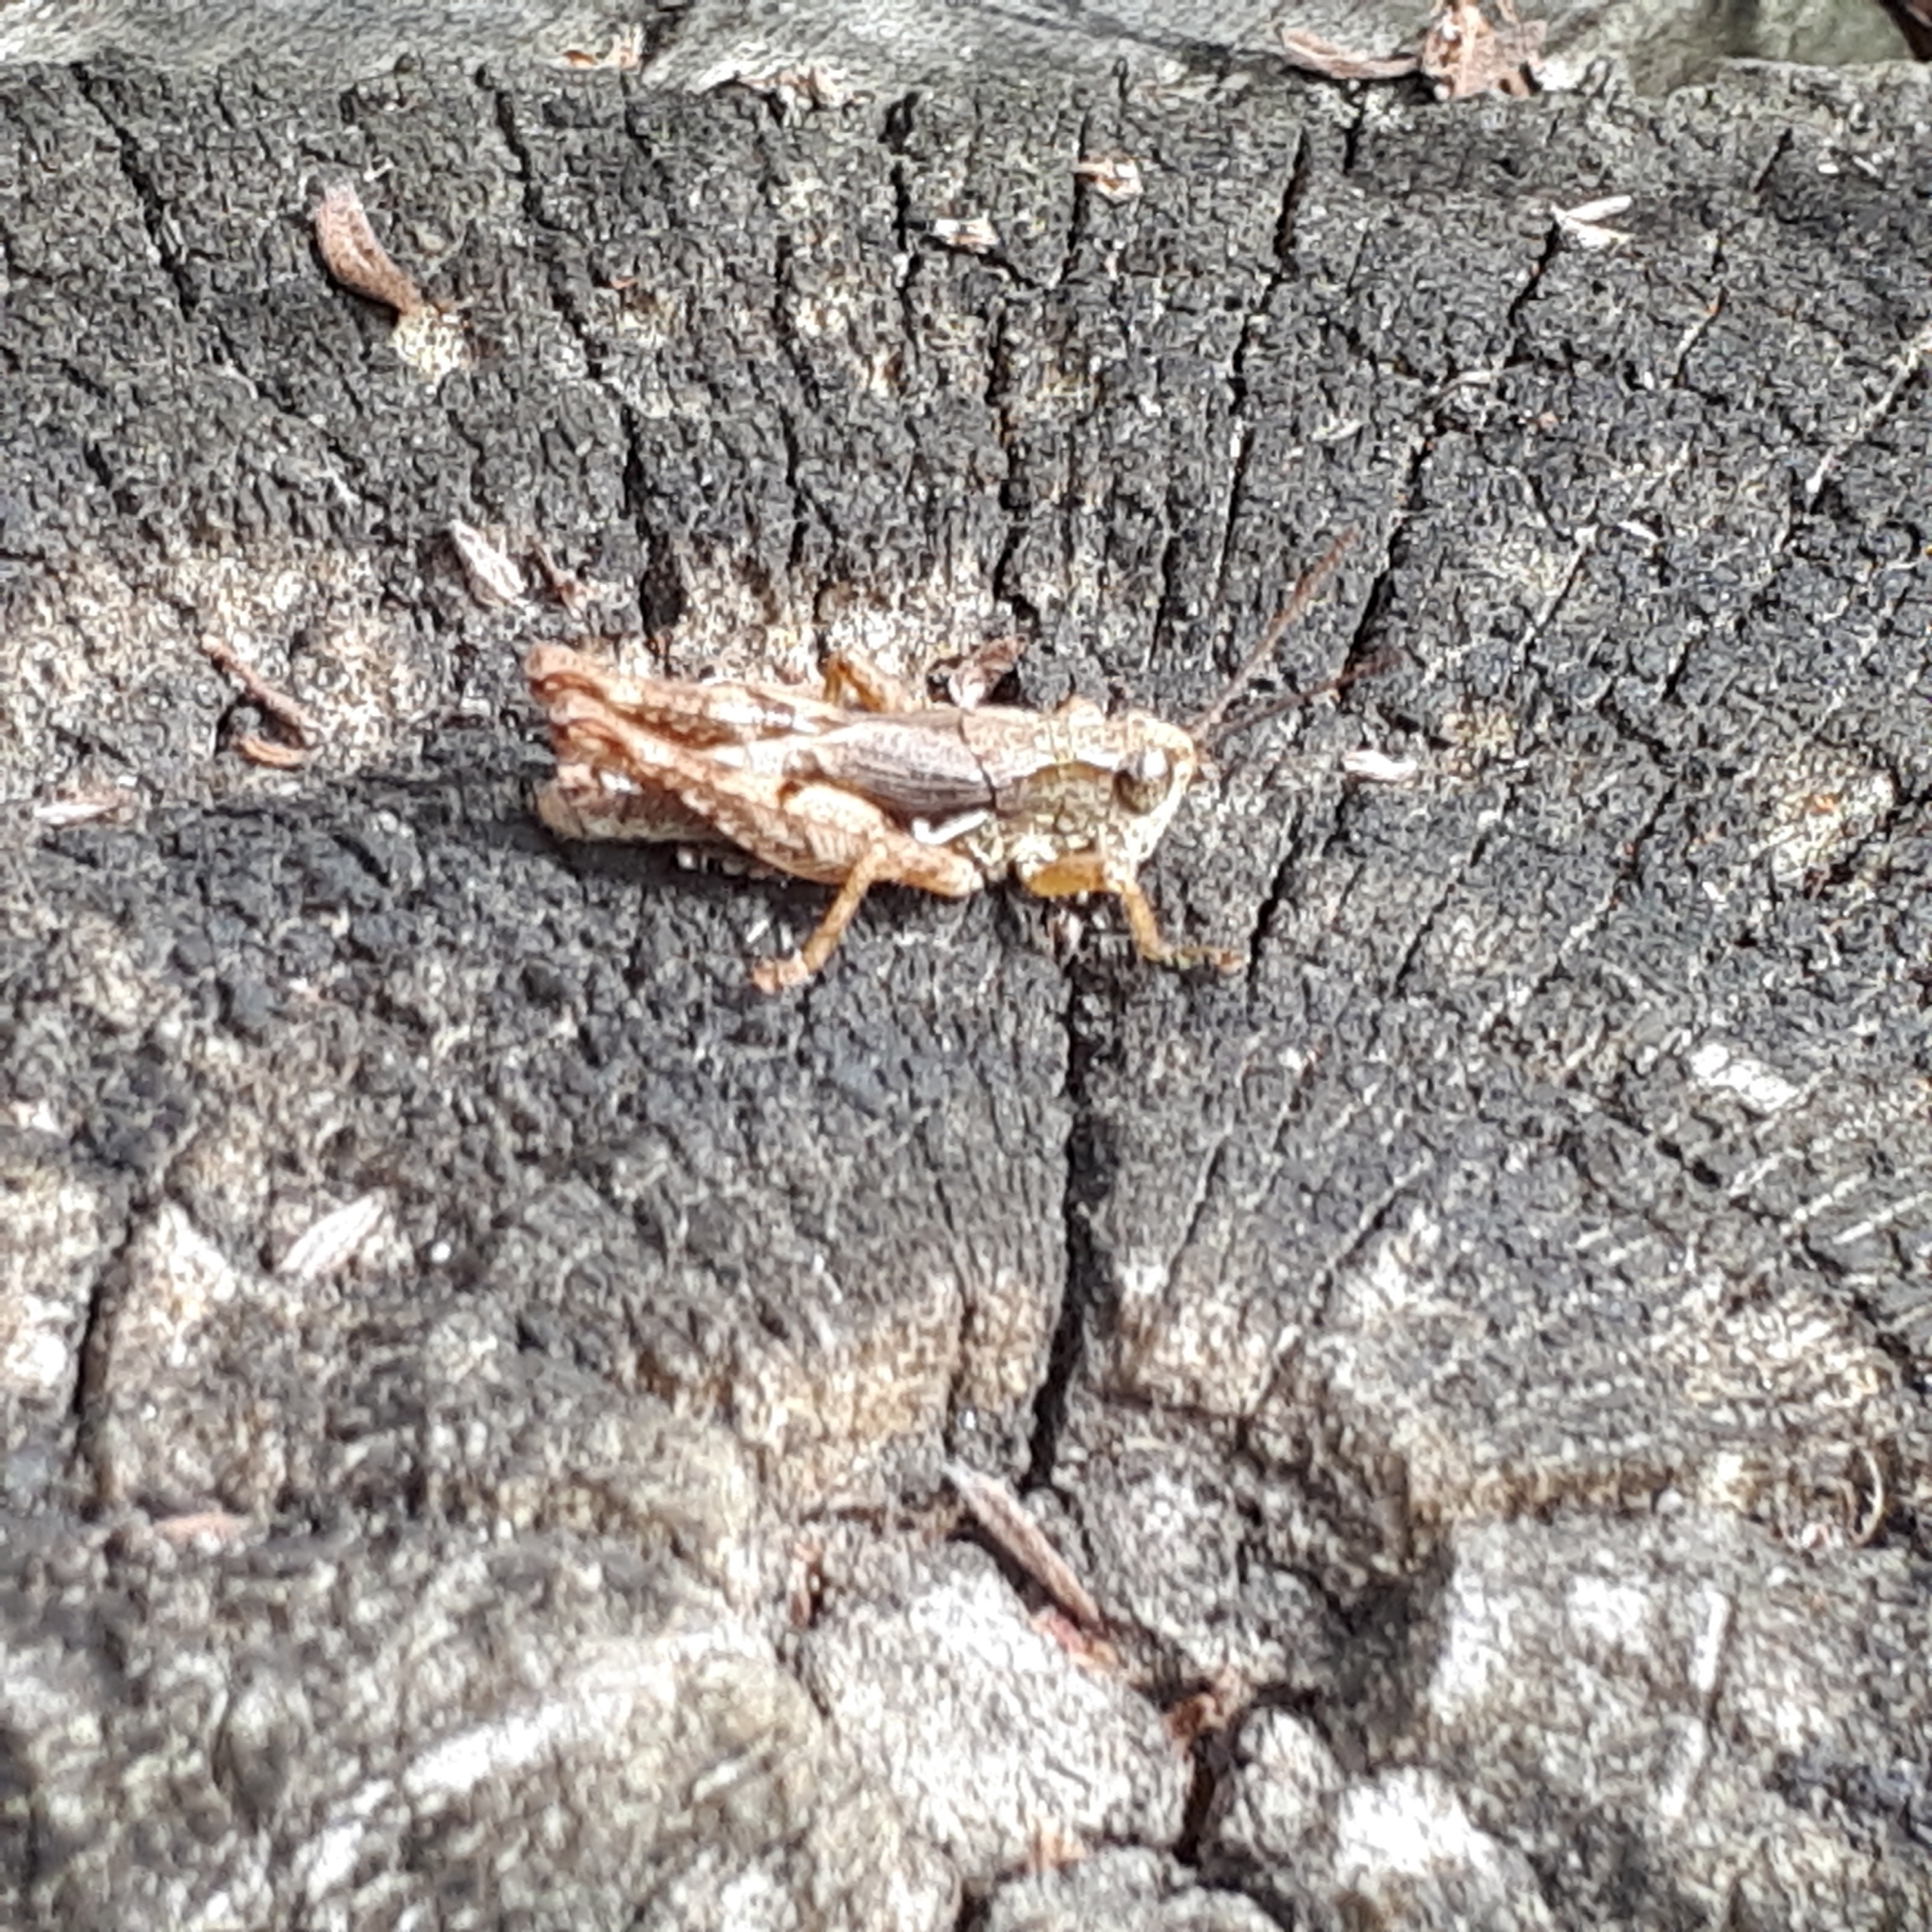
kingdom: Animalia
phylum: Arthropoda
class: Insecta
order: Orthoptera
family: Acrididae
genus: Phaulacridium
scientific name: Phaulacridium marginale
